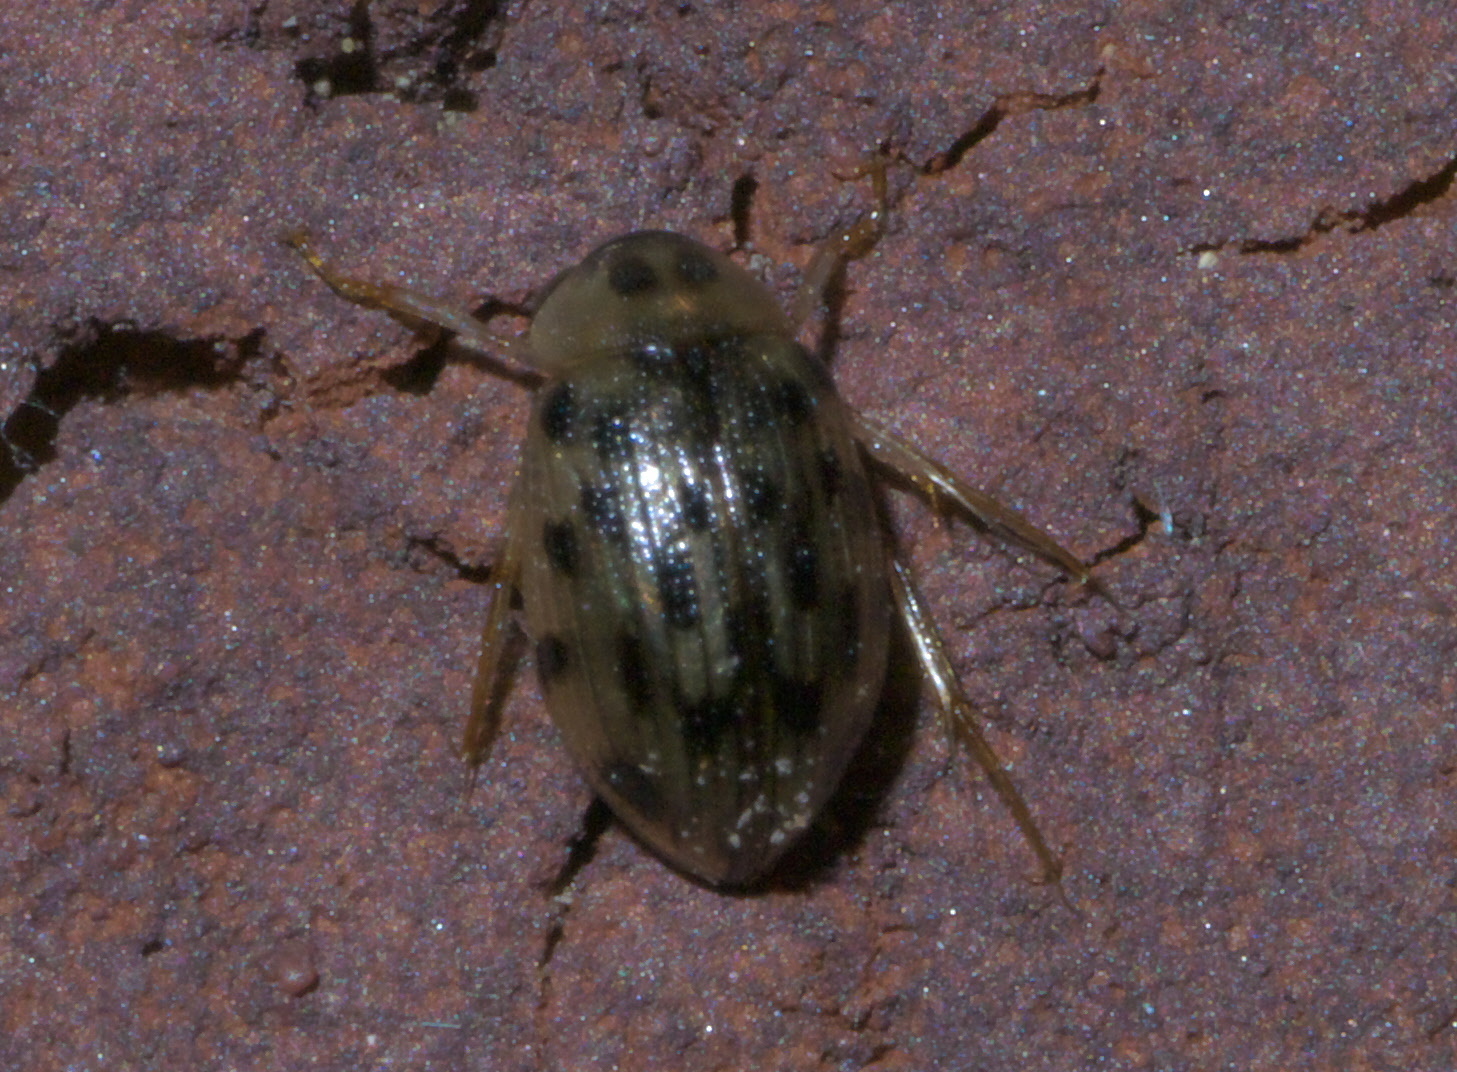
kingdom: Animalia
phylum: Arthropoda
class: Insecta
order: Coleoptera
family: Hydrophilidae
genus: Berosus
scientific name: Berosus pantherinus
